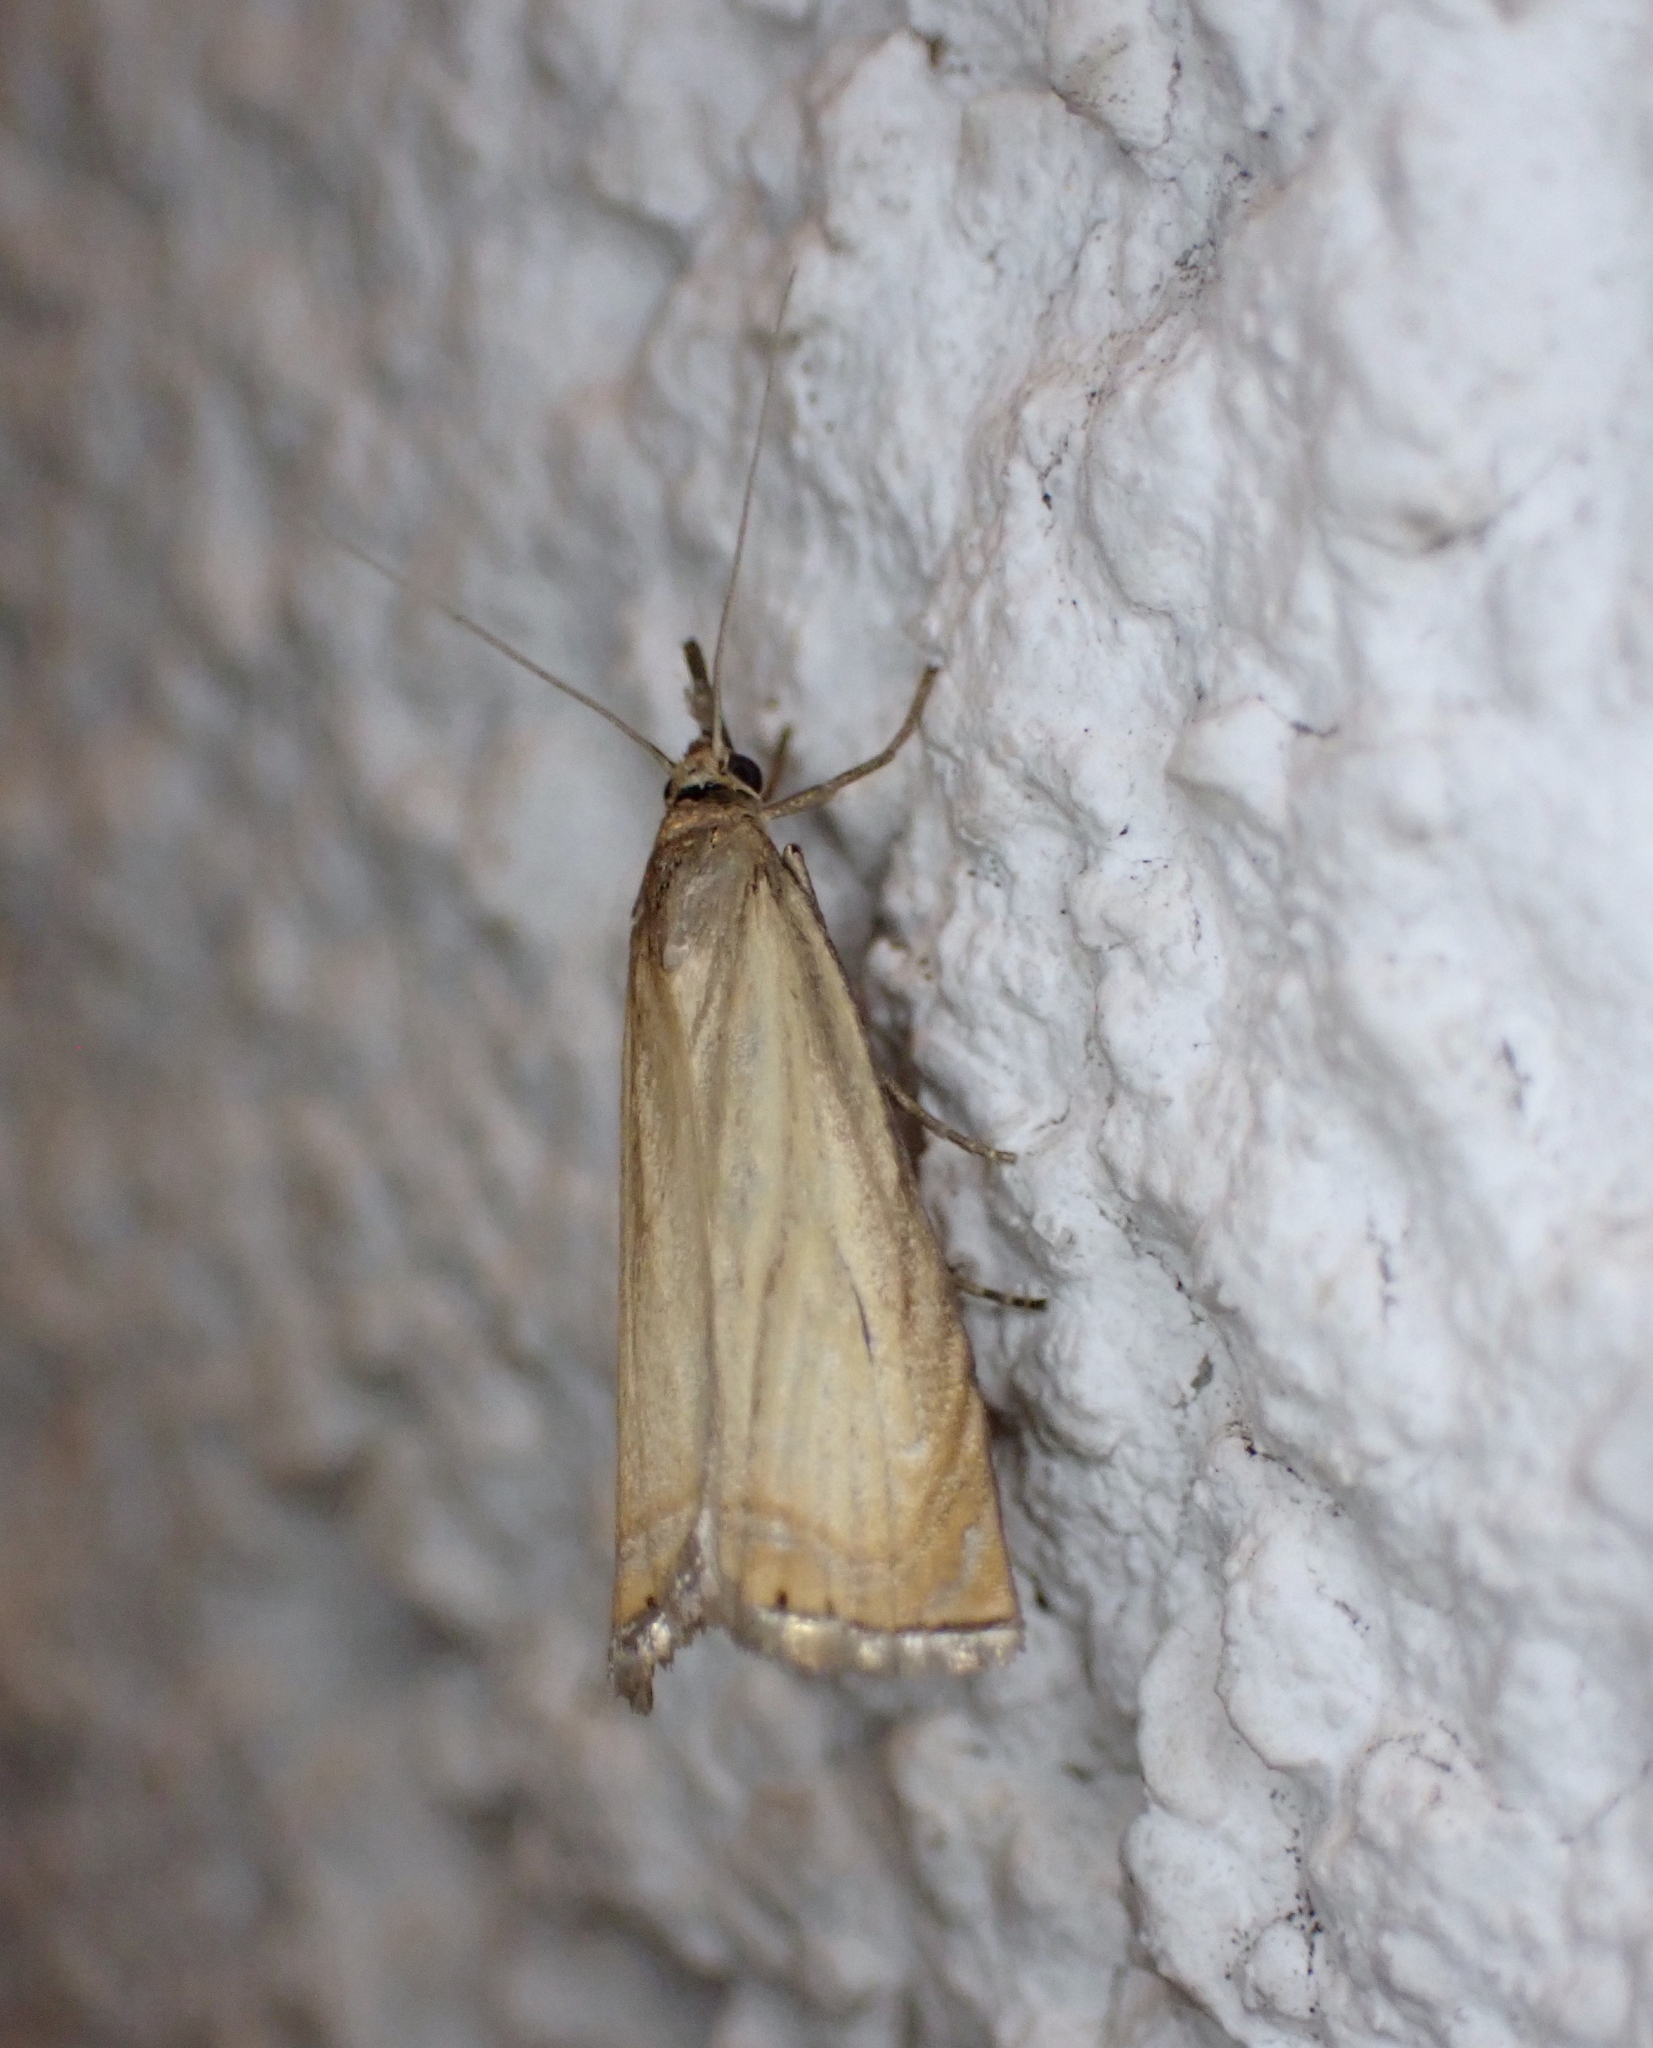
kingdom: Animalia
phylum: Arthropoda
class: Insecta
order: Lepidoptera
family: Crambidae
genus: Chrysoteuchia
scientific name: Chrysoteuchia culmella
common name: Garden grass-veneer
